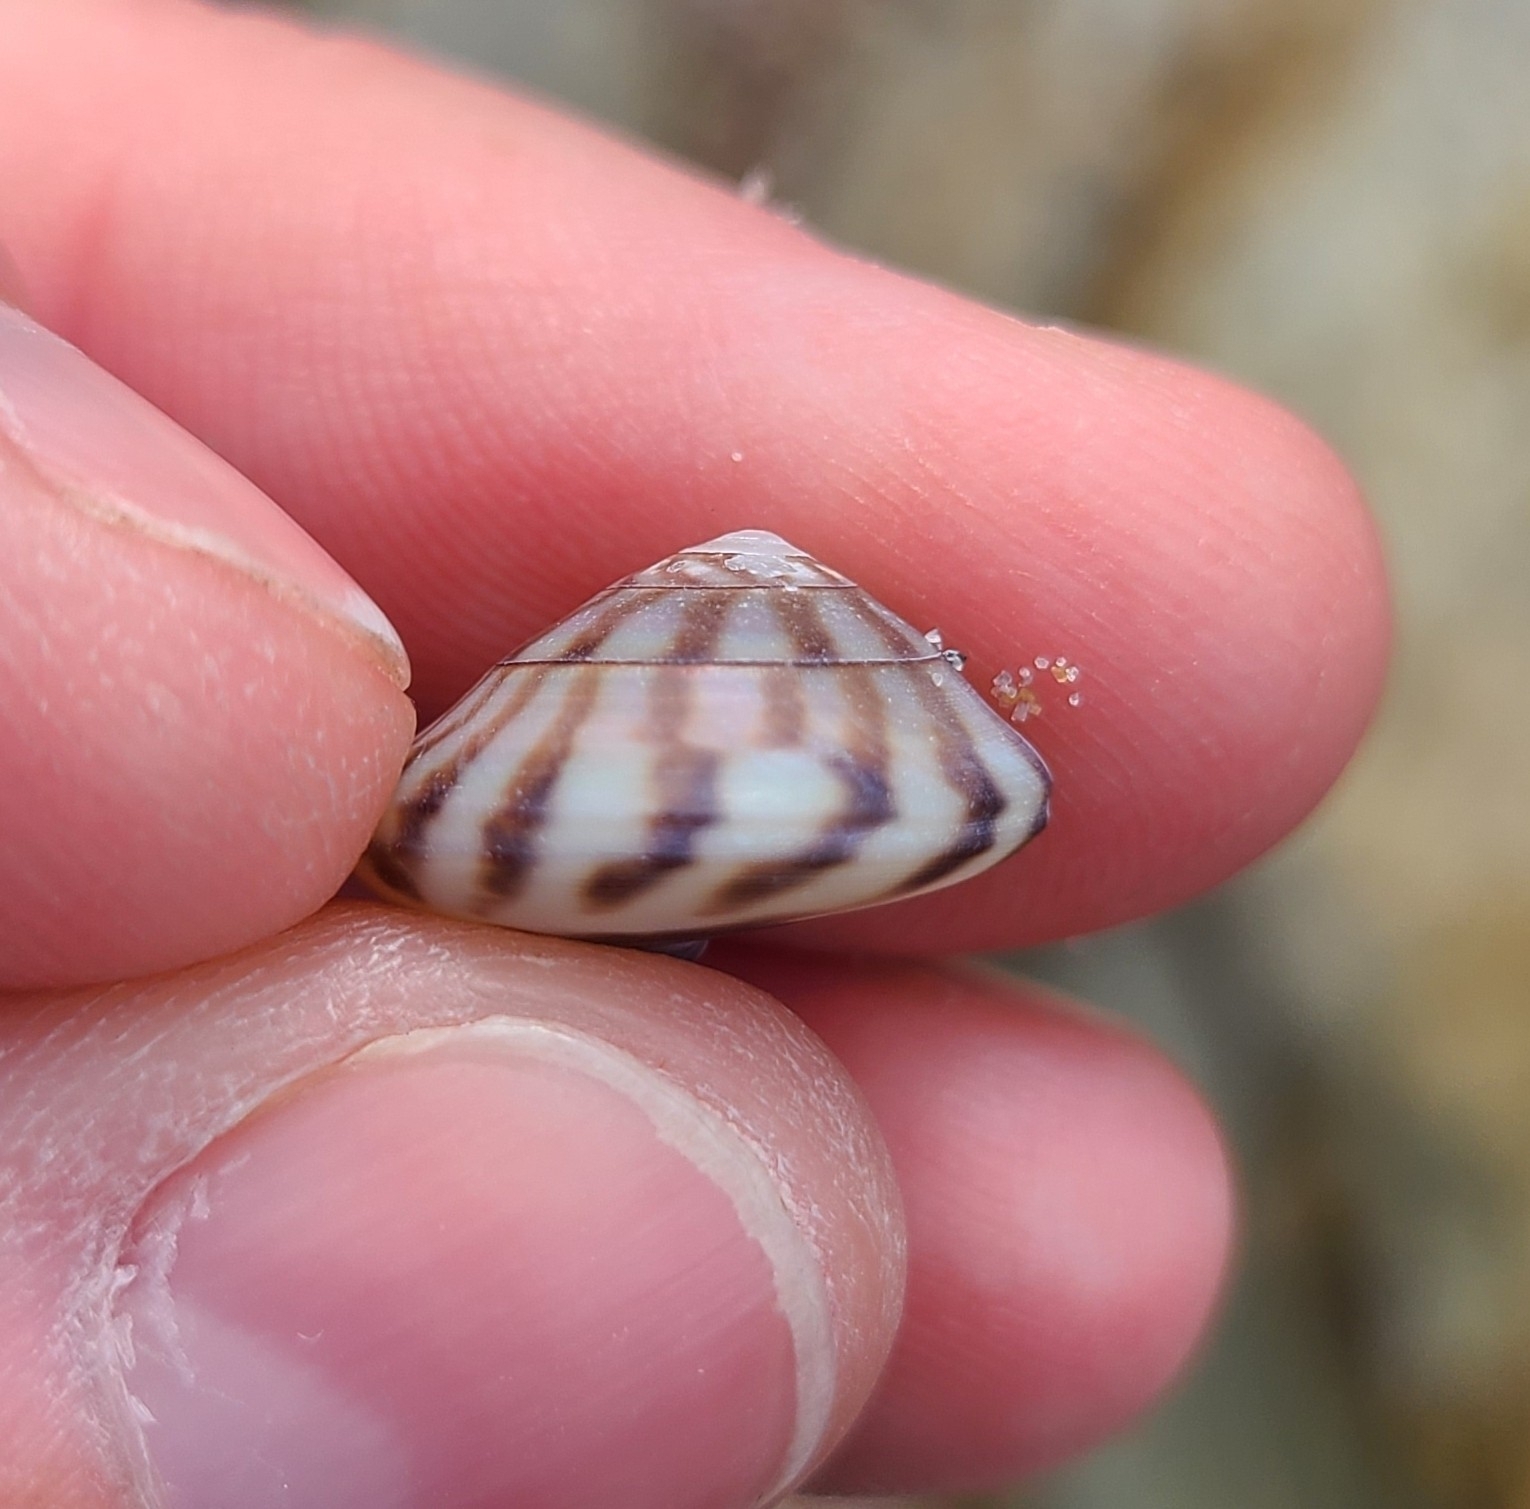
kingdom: Animalia
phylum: Mollusca
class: Gastropoda
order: Trochida
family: Trochidae
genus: Zethalia
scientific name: Zethalia zelandica
